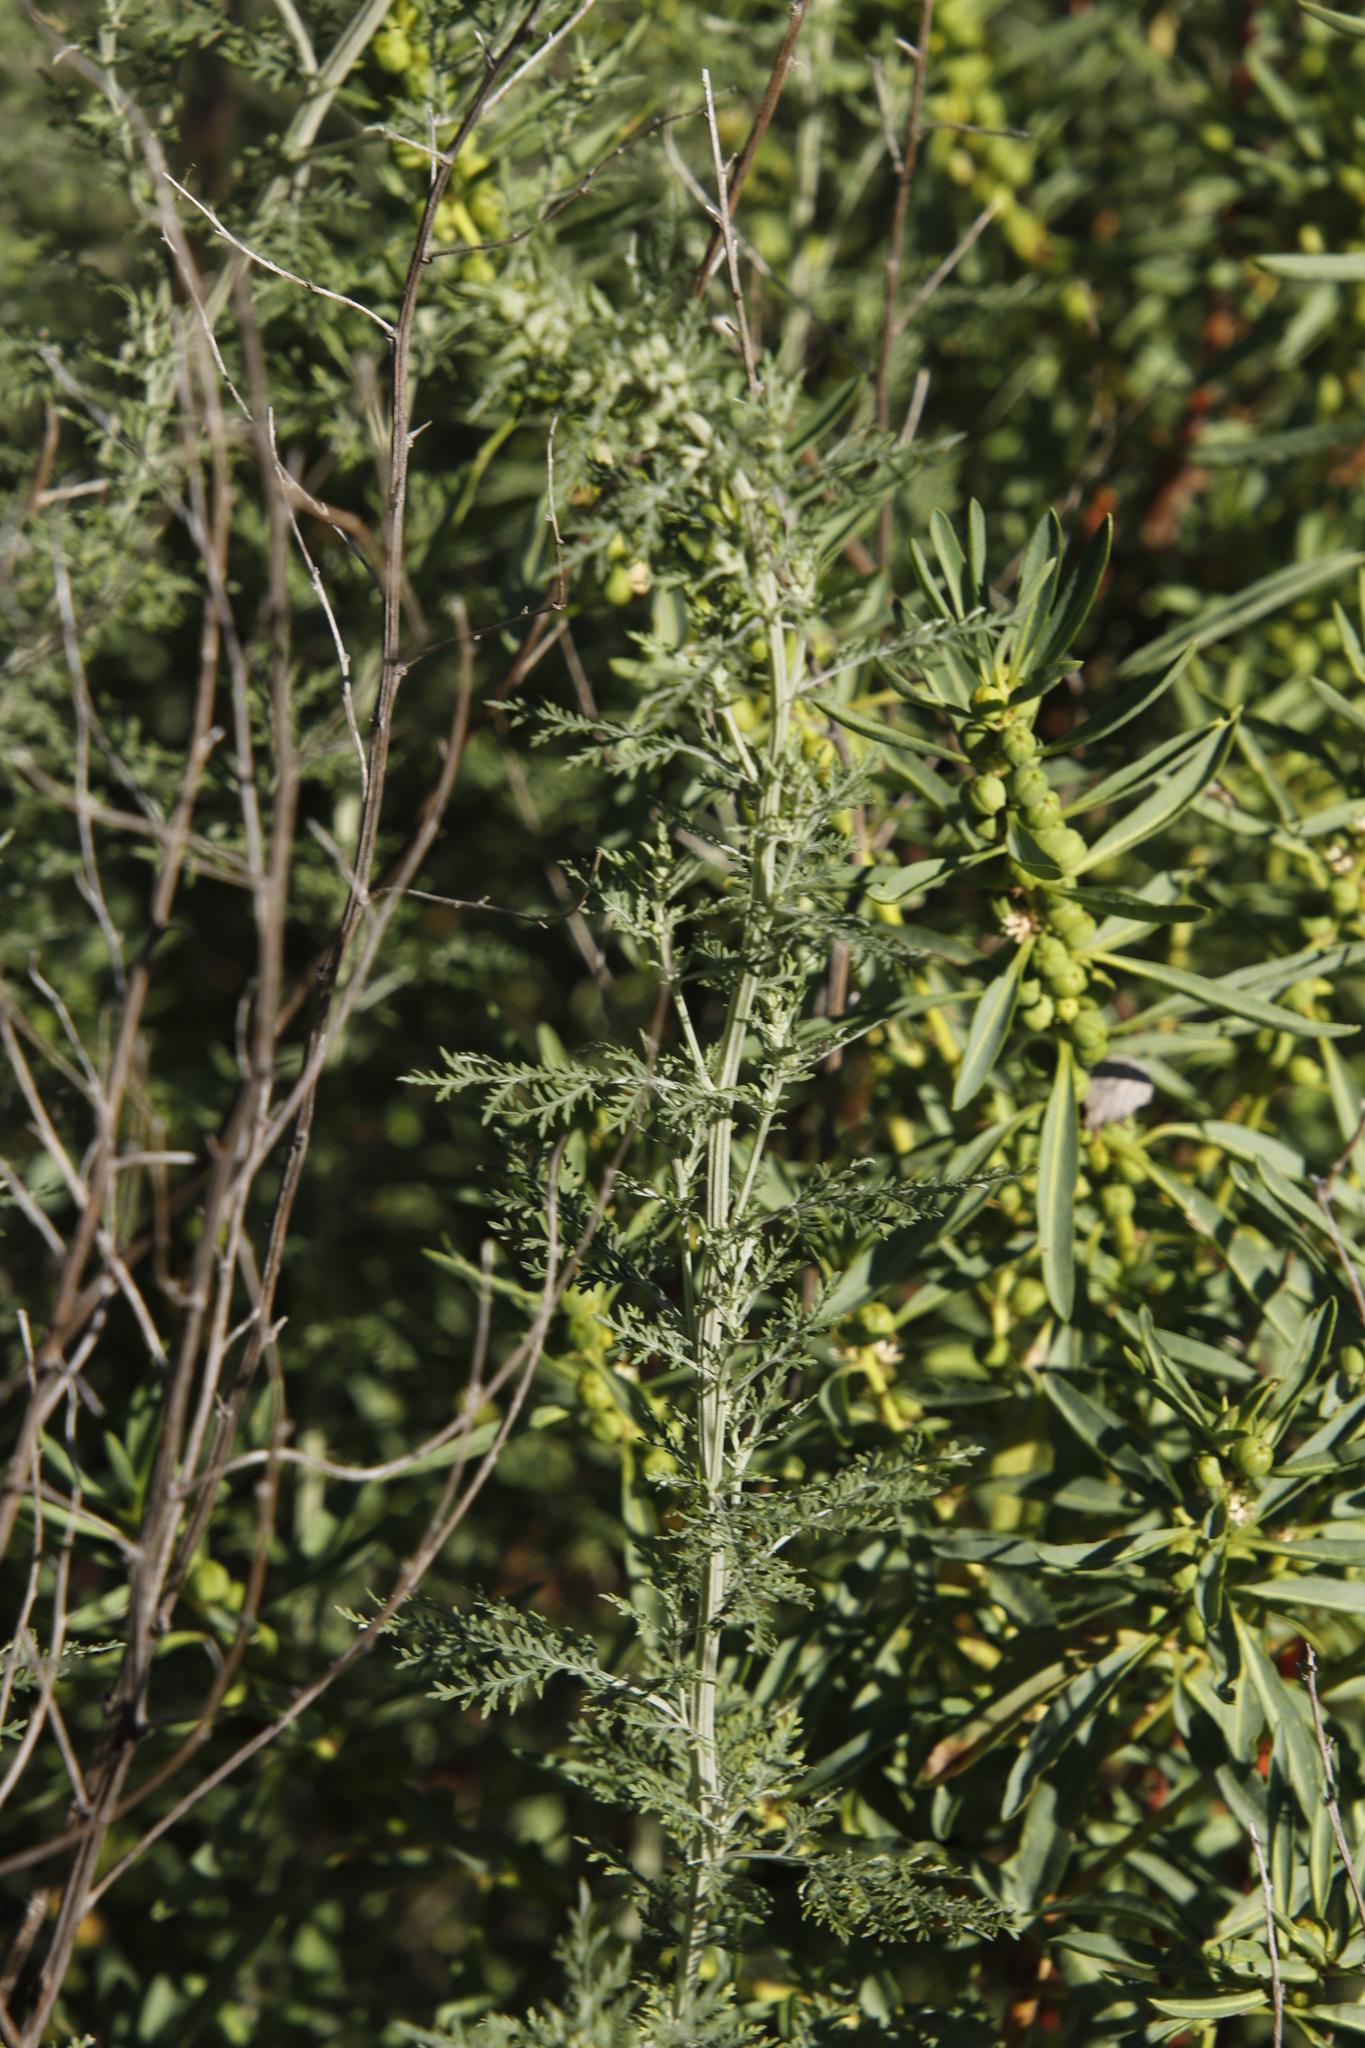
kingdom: Plantae
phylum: Tracheophyta
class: Magnoliopsida
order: Asterales
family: Asteraceae
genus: Artemisia
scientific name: Artemisia afra
